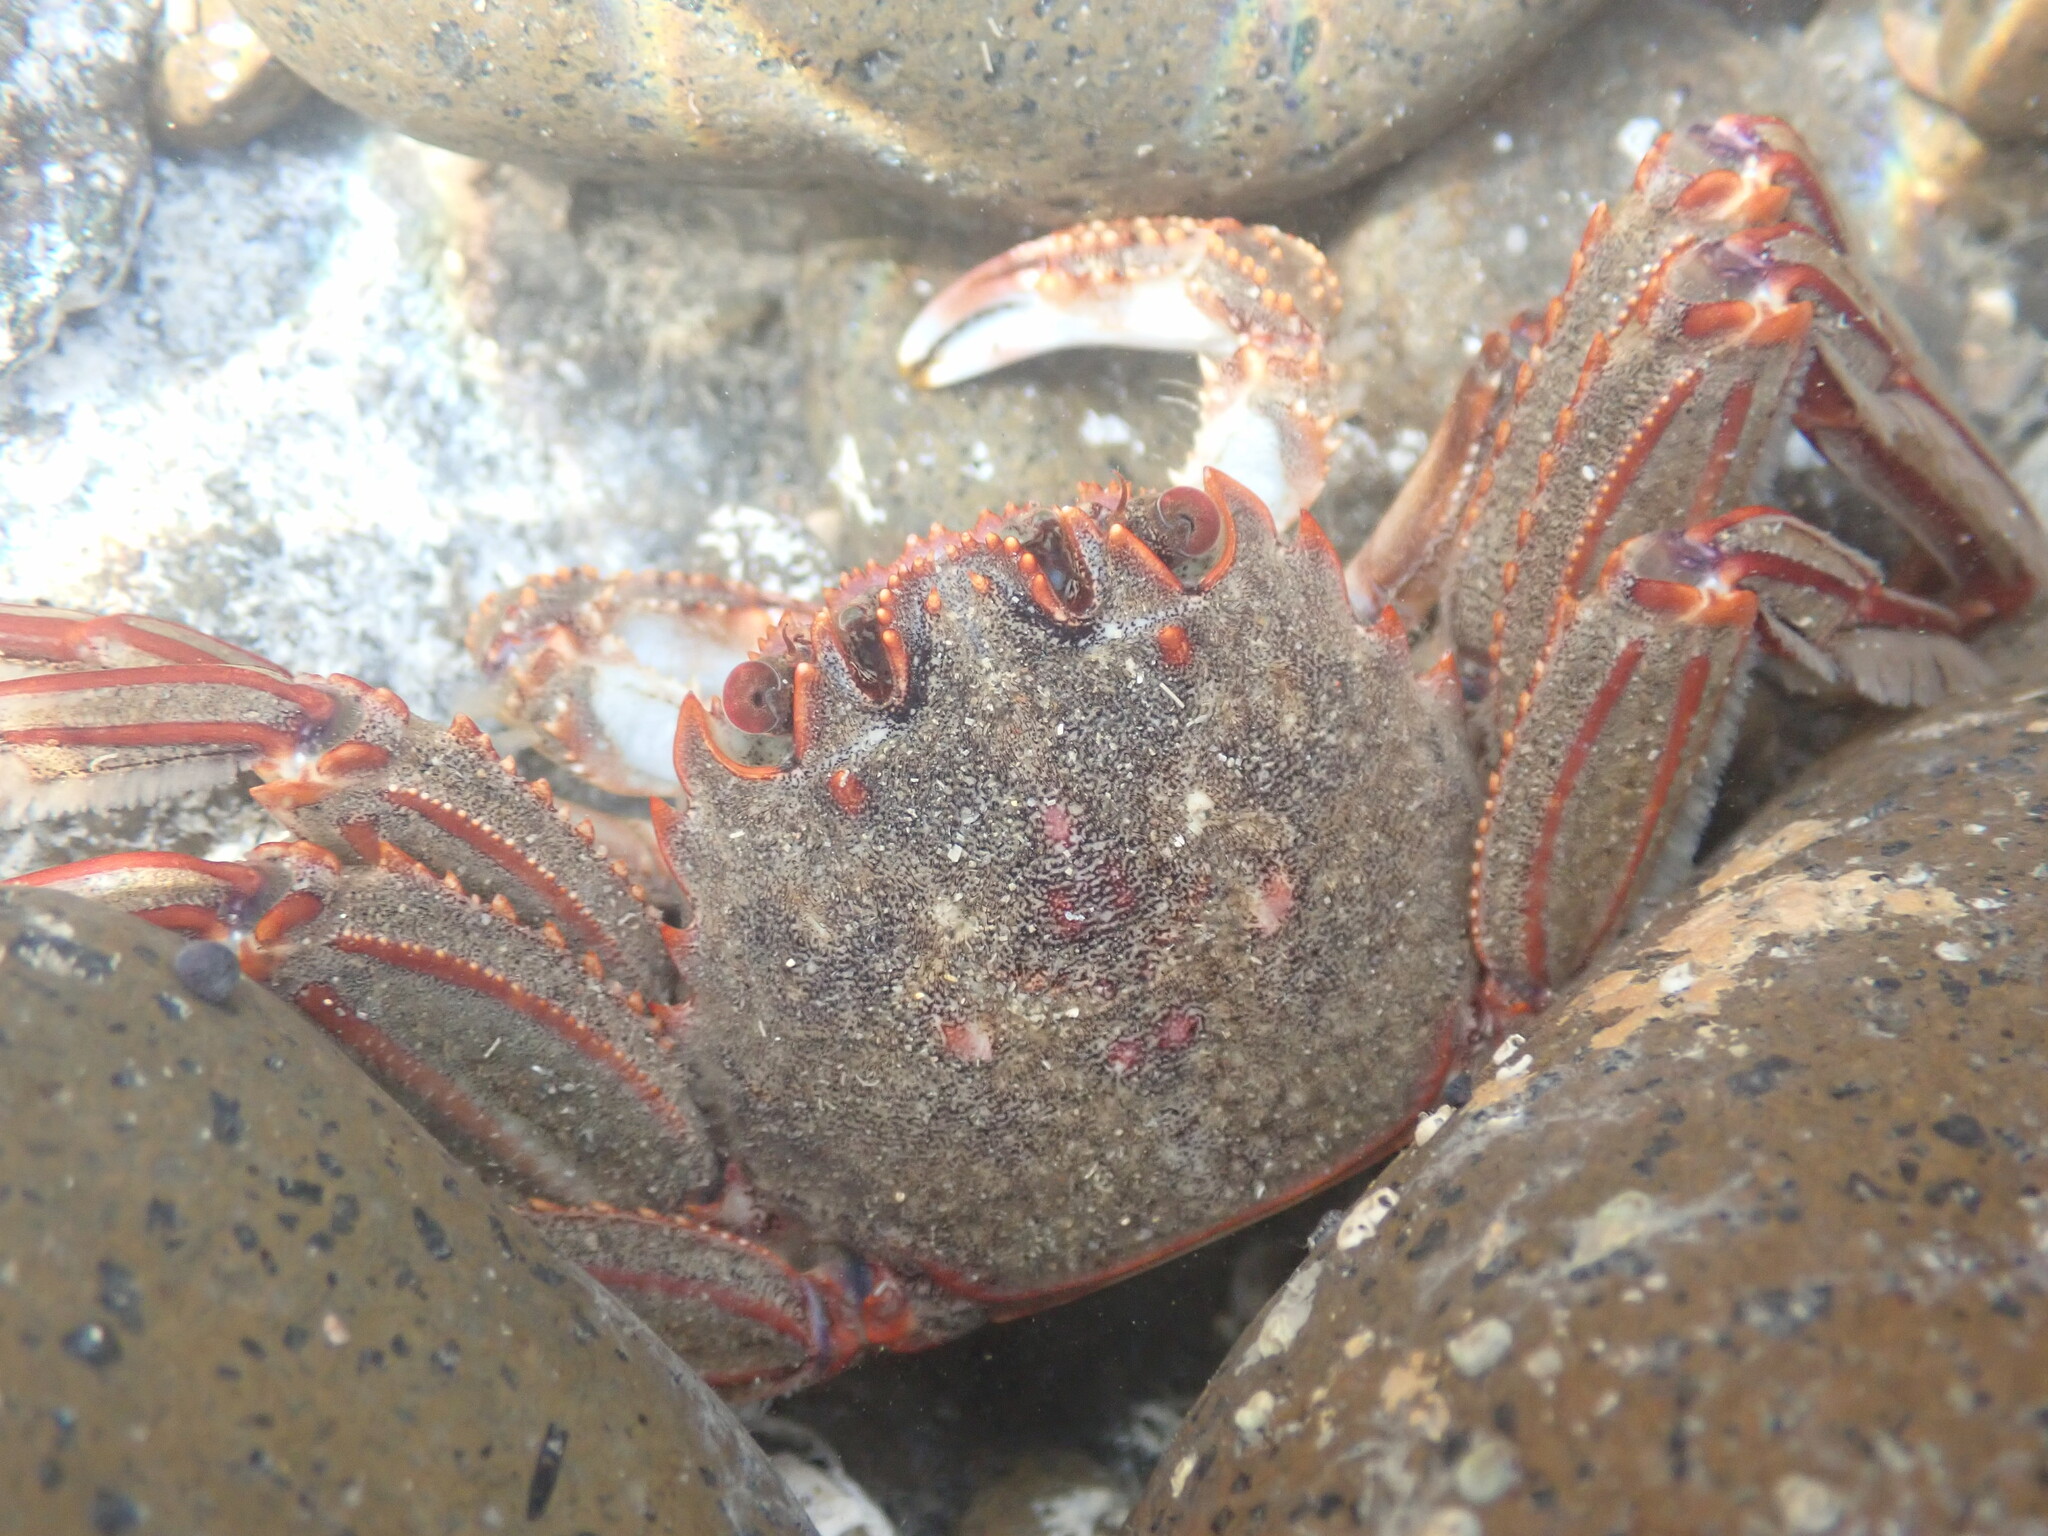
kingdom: Animalia
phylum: Arthropoda
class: Malacostraca
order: Decapoda
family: Plagusiidae
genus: Guinusia
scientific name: Guinusia chabrus
